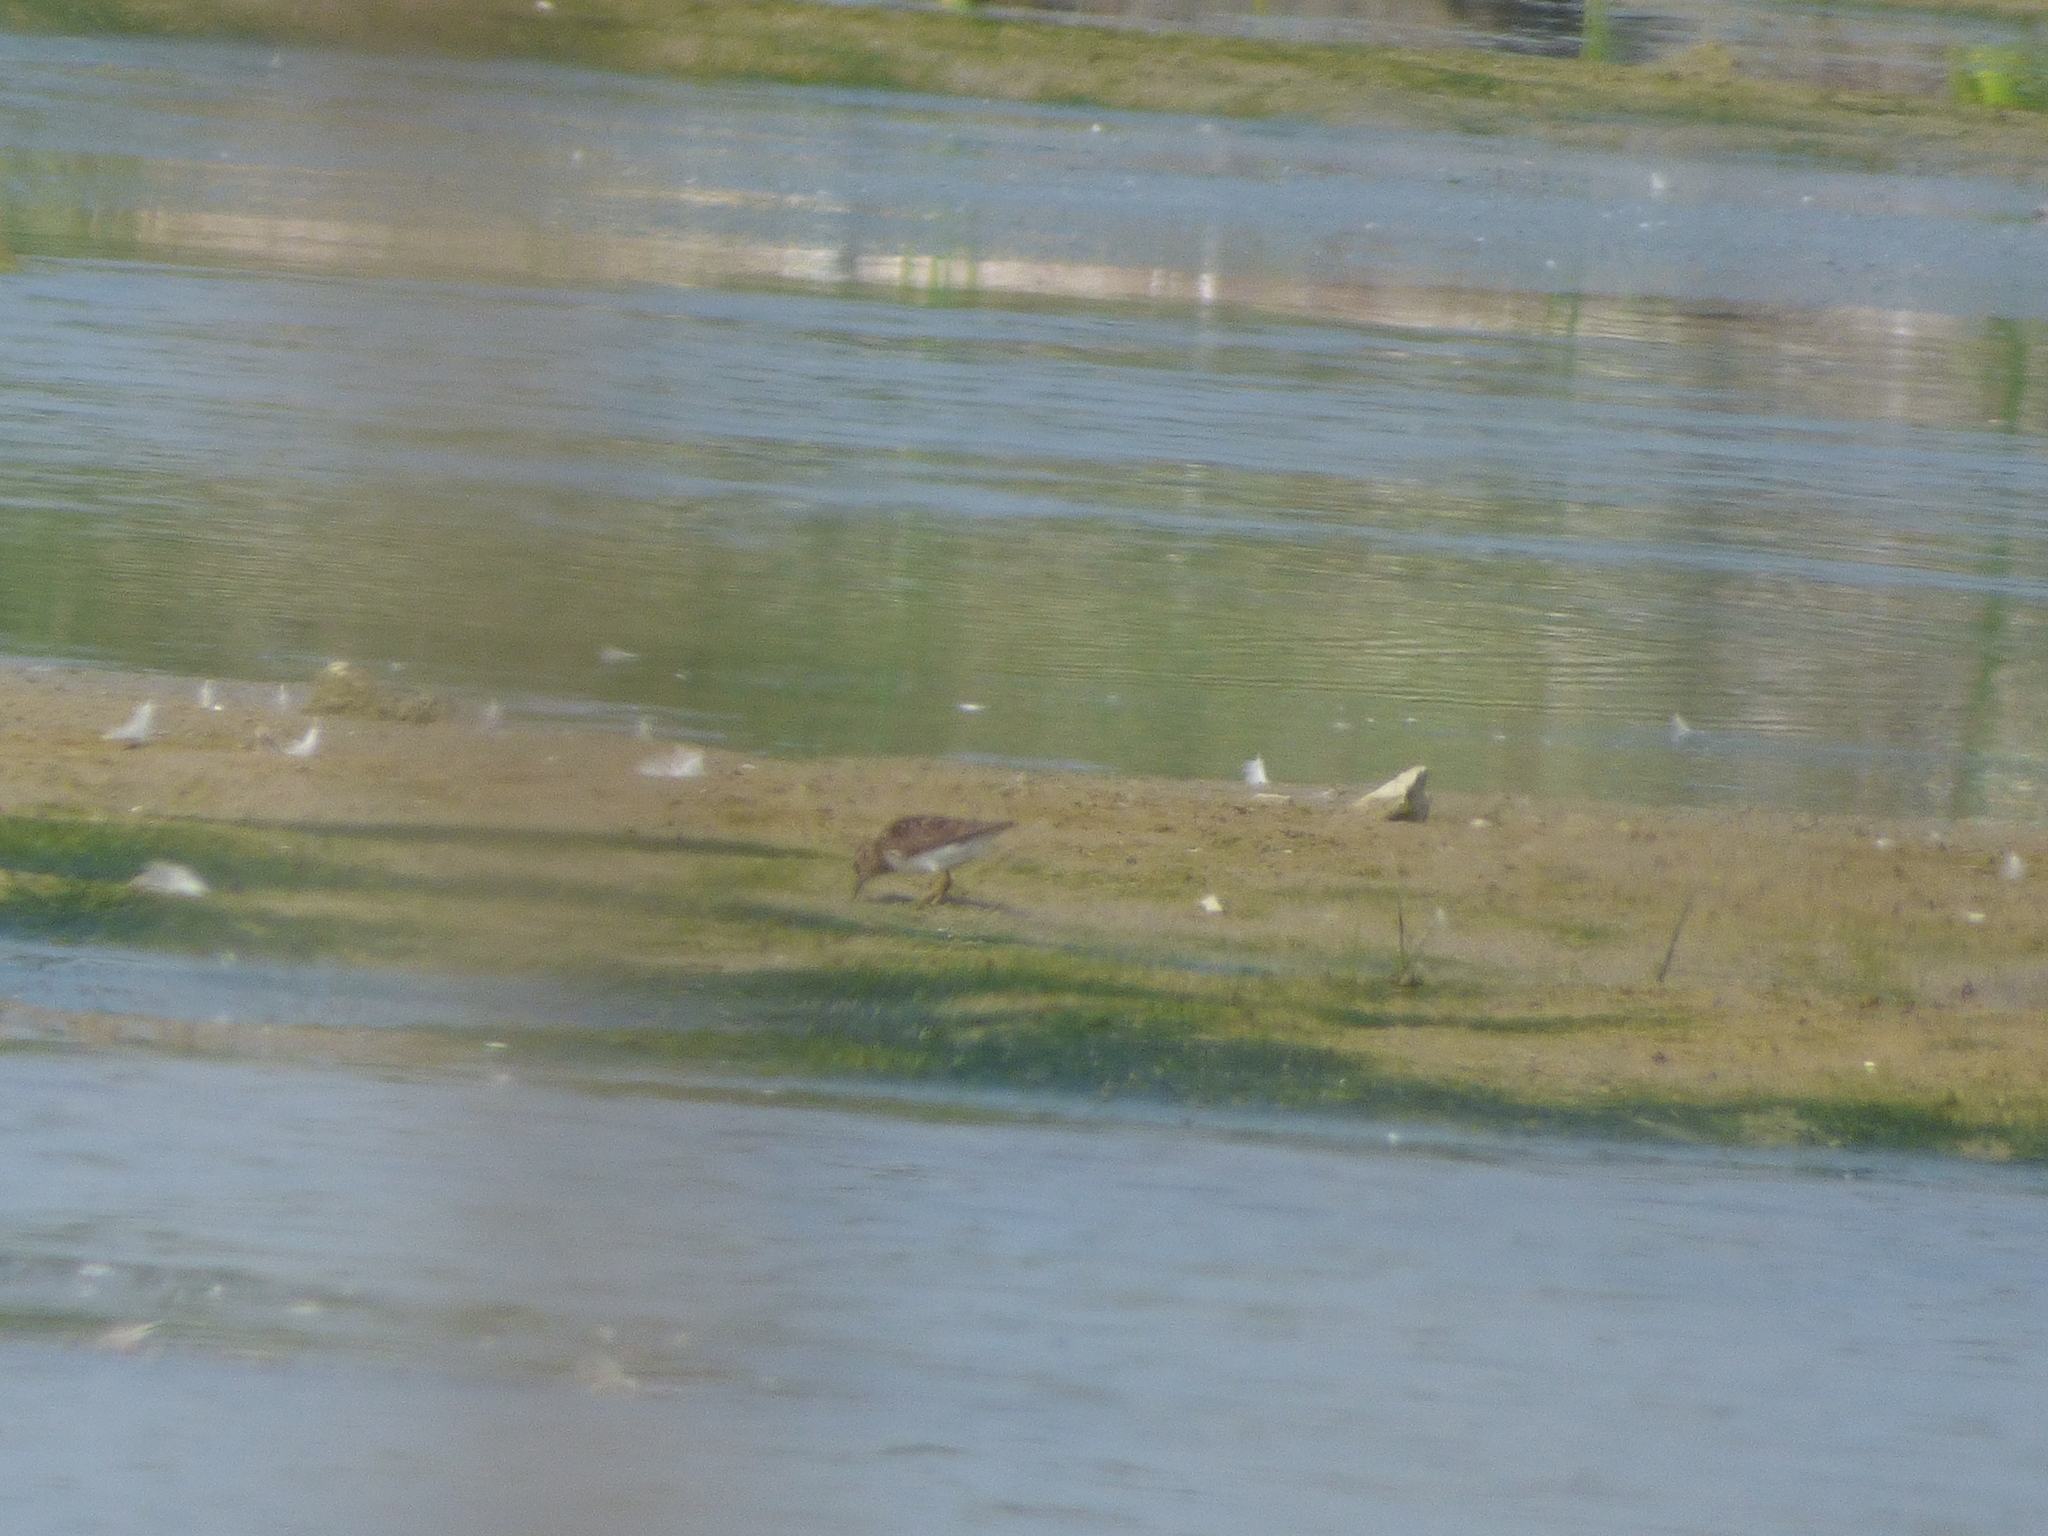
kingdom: Animalia
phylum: Chordata
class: Aves
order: Charadriiformes
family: Scolopacidae
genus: Calidris
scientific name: Calidris minutilla
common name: Least sandpiper
